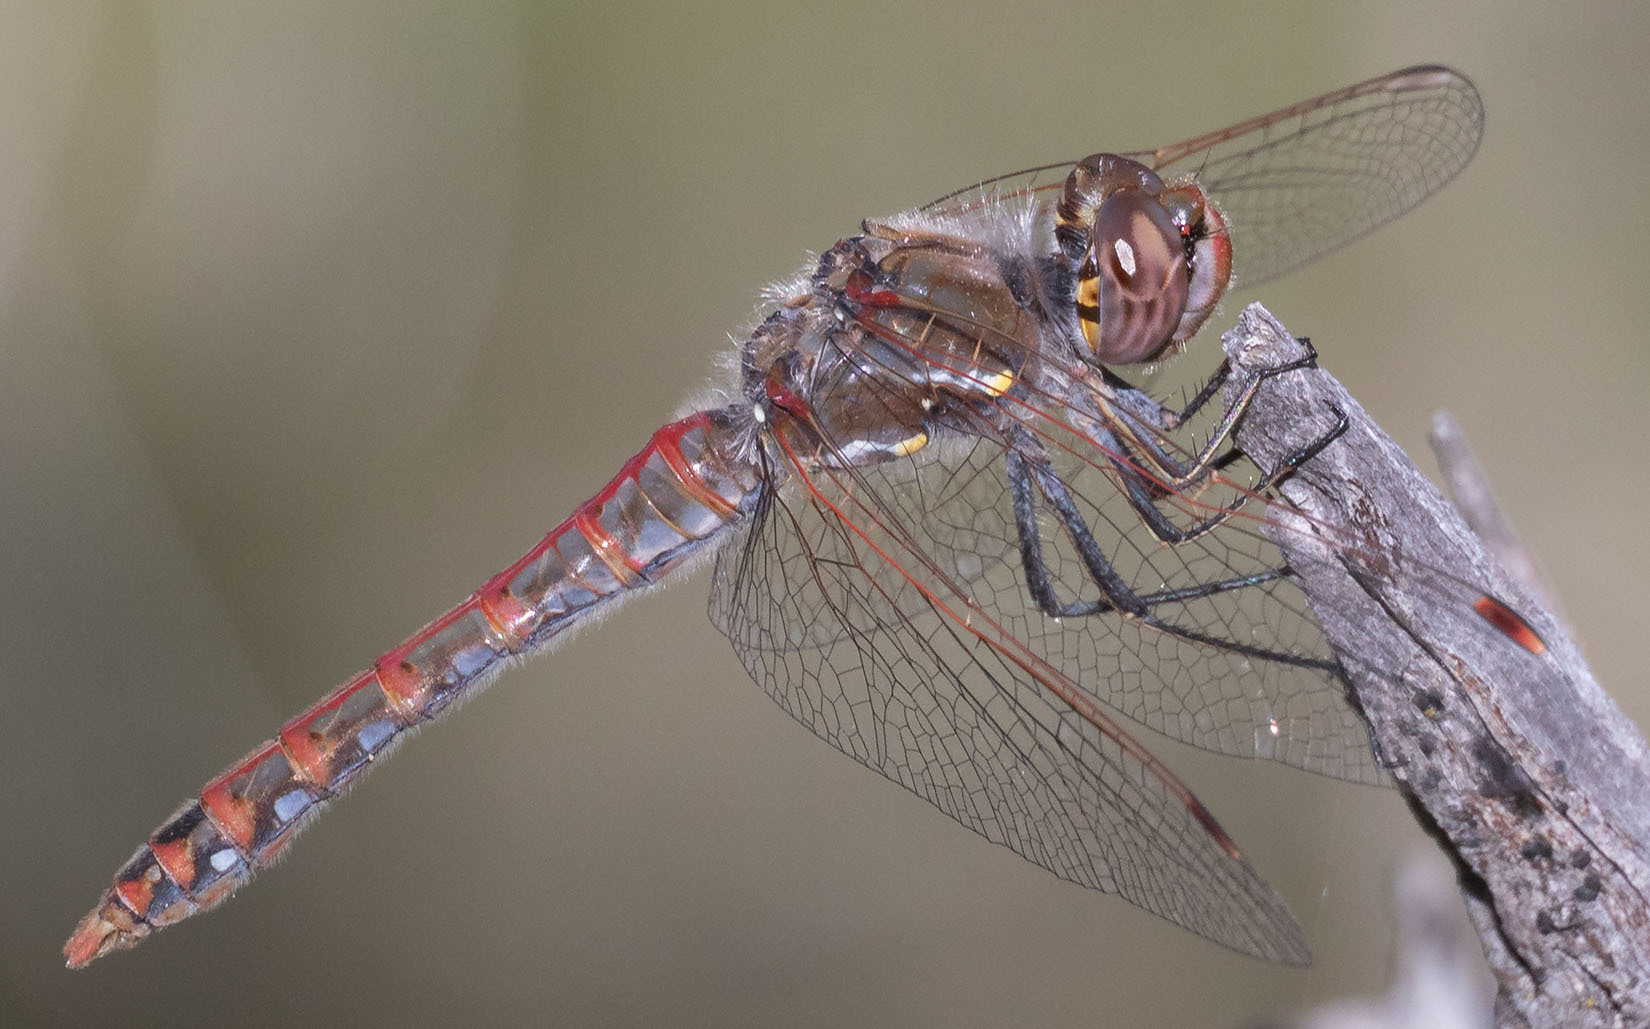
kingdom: Animalia
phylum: Arthropoda
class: Insecta
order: Odonata
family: Libellulidae
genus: Sympetrum
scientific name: Sympetrum corruptum
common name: Variegated meadowhawk
